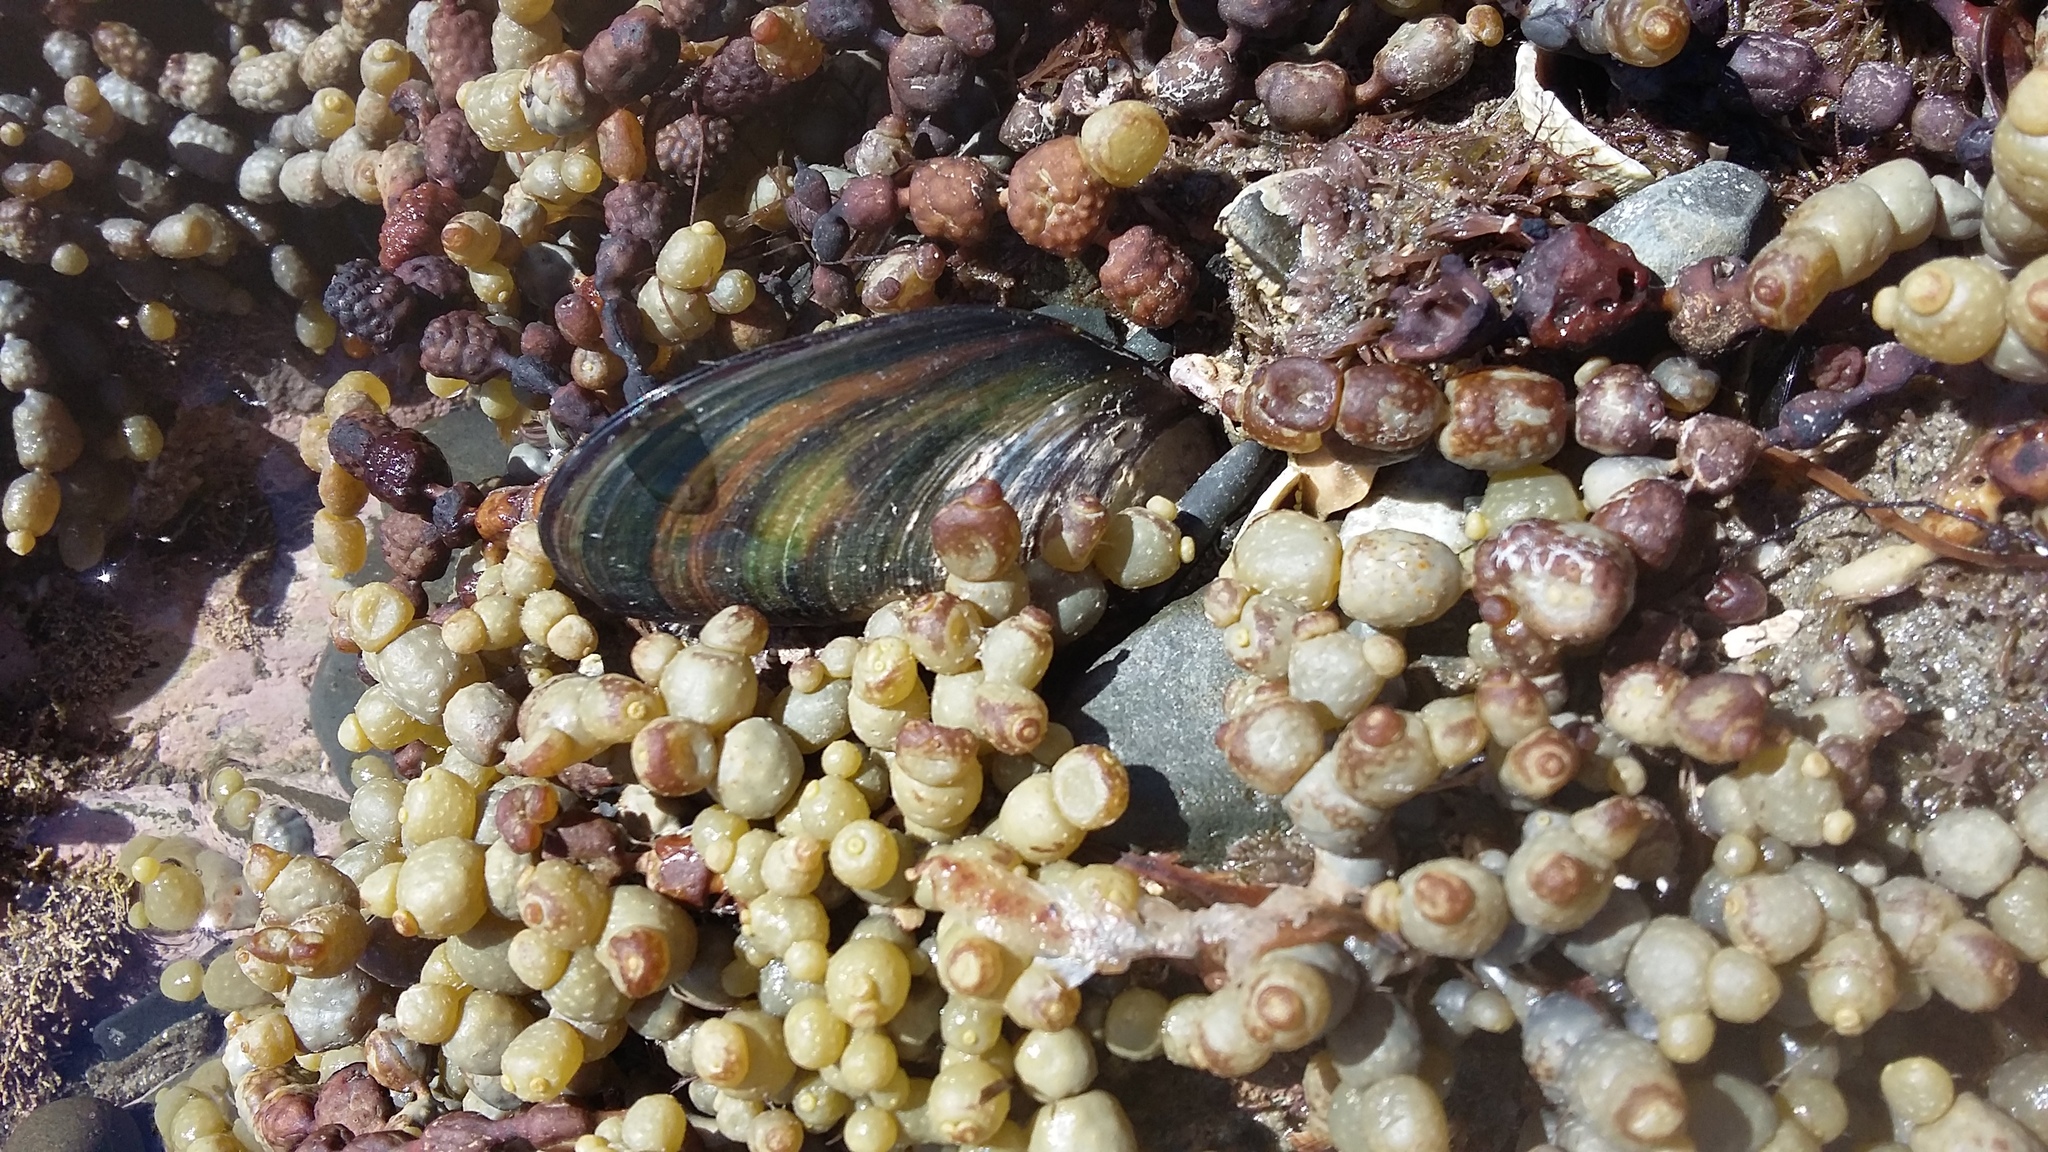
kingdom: Animalia
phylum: Mollusca
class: Bivalvia
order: Mytilida
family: Mytilidae
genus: Perna
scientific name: Perna canaliculus
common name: New zealand greenshelltm
